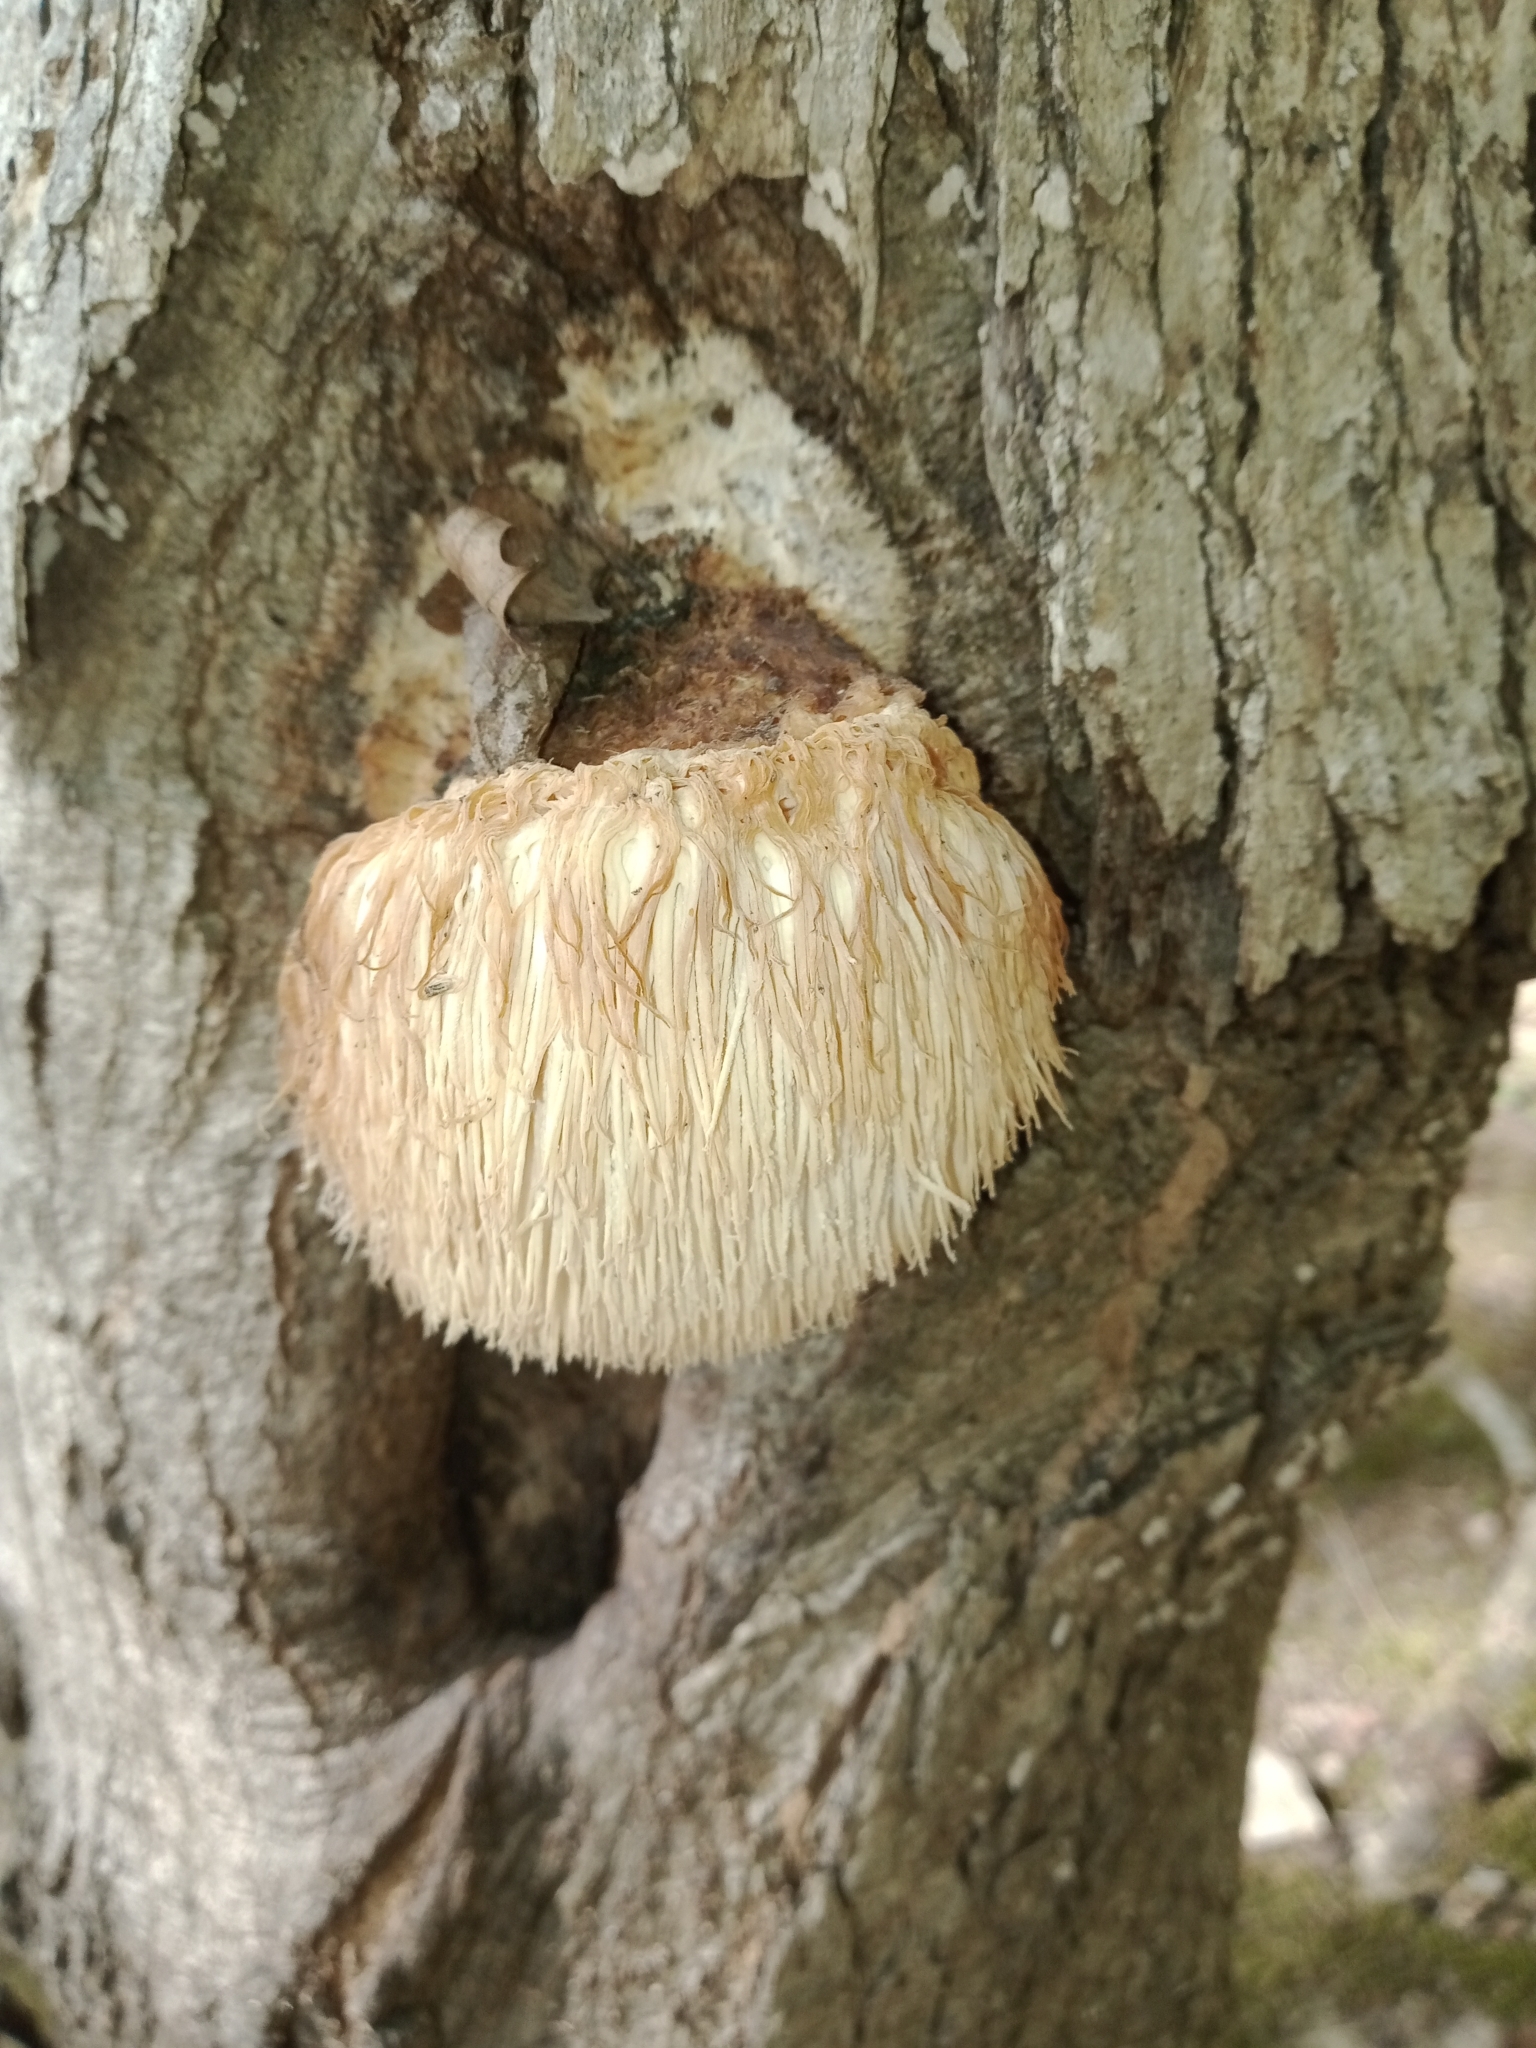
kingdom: Fungi
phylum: Basidiomycota
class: Agaricomycetes
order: Russulales
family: Hericiaceae
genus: Hericium
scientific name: Hericium erinaceus
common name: Bearded tooth
